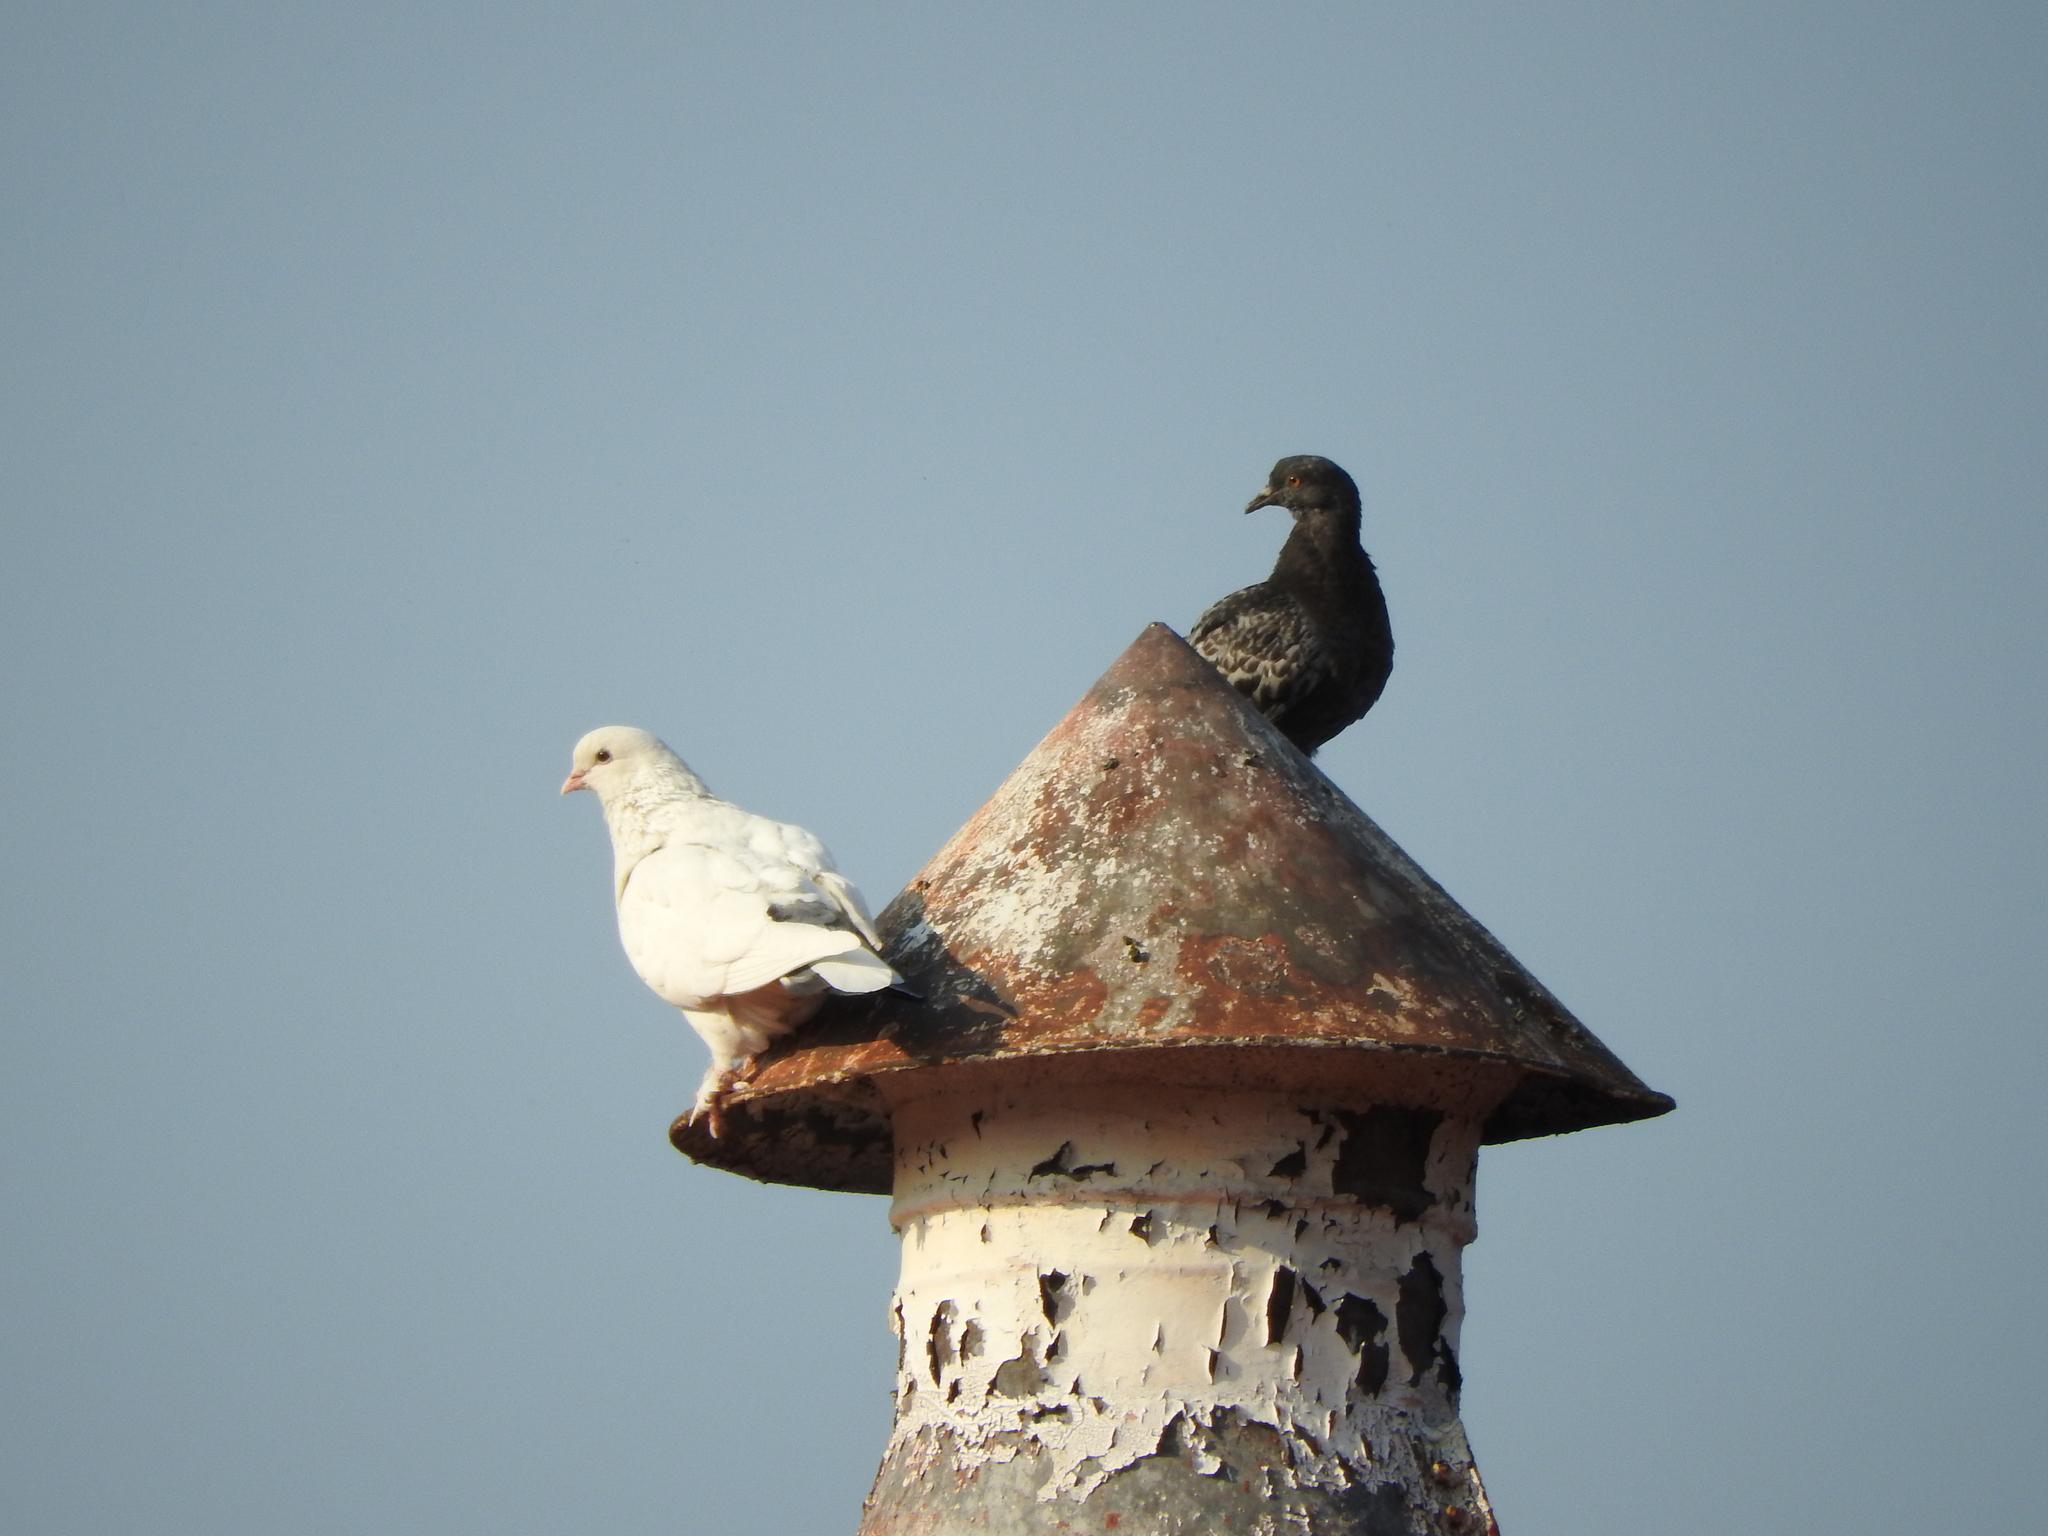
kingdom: Animalia
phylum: Chordata
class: Aves
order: Columbiformes
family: Columbidae
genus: Columba
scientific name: Columba livia
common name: Rock pigeon
